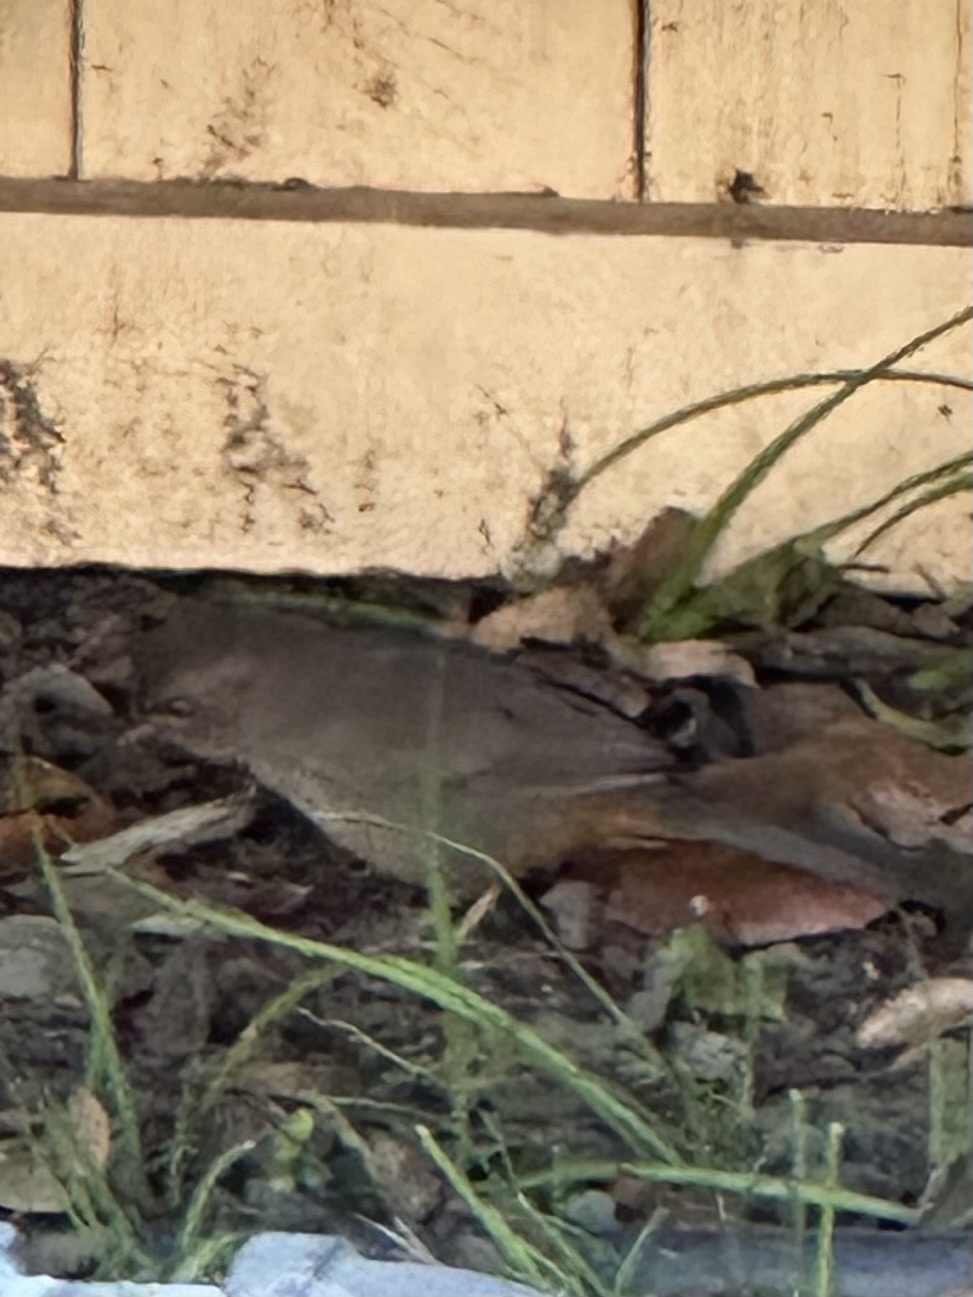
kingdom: Animalia
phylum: Chordata
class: Aves
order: Passeriformes
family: Passerellidae
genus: Melozone
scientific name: Melozone crissalis
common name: California towhee
